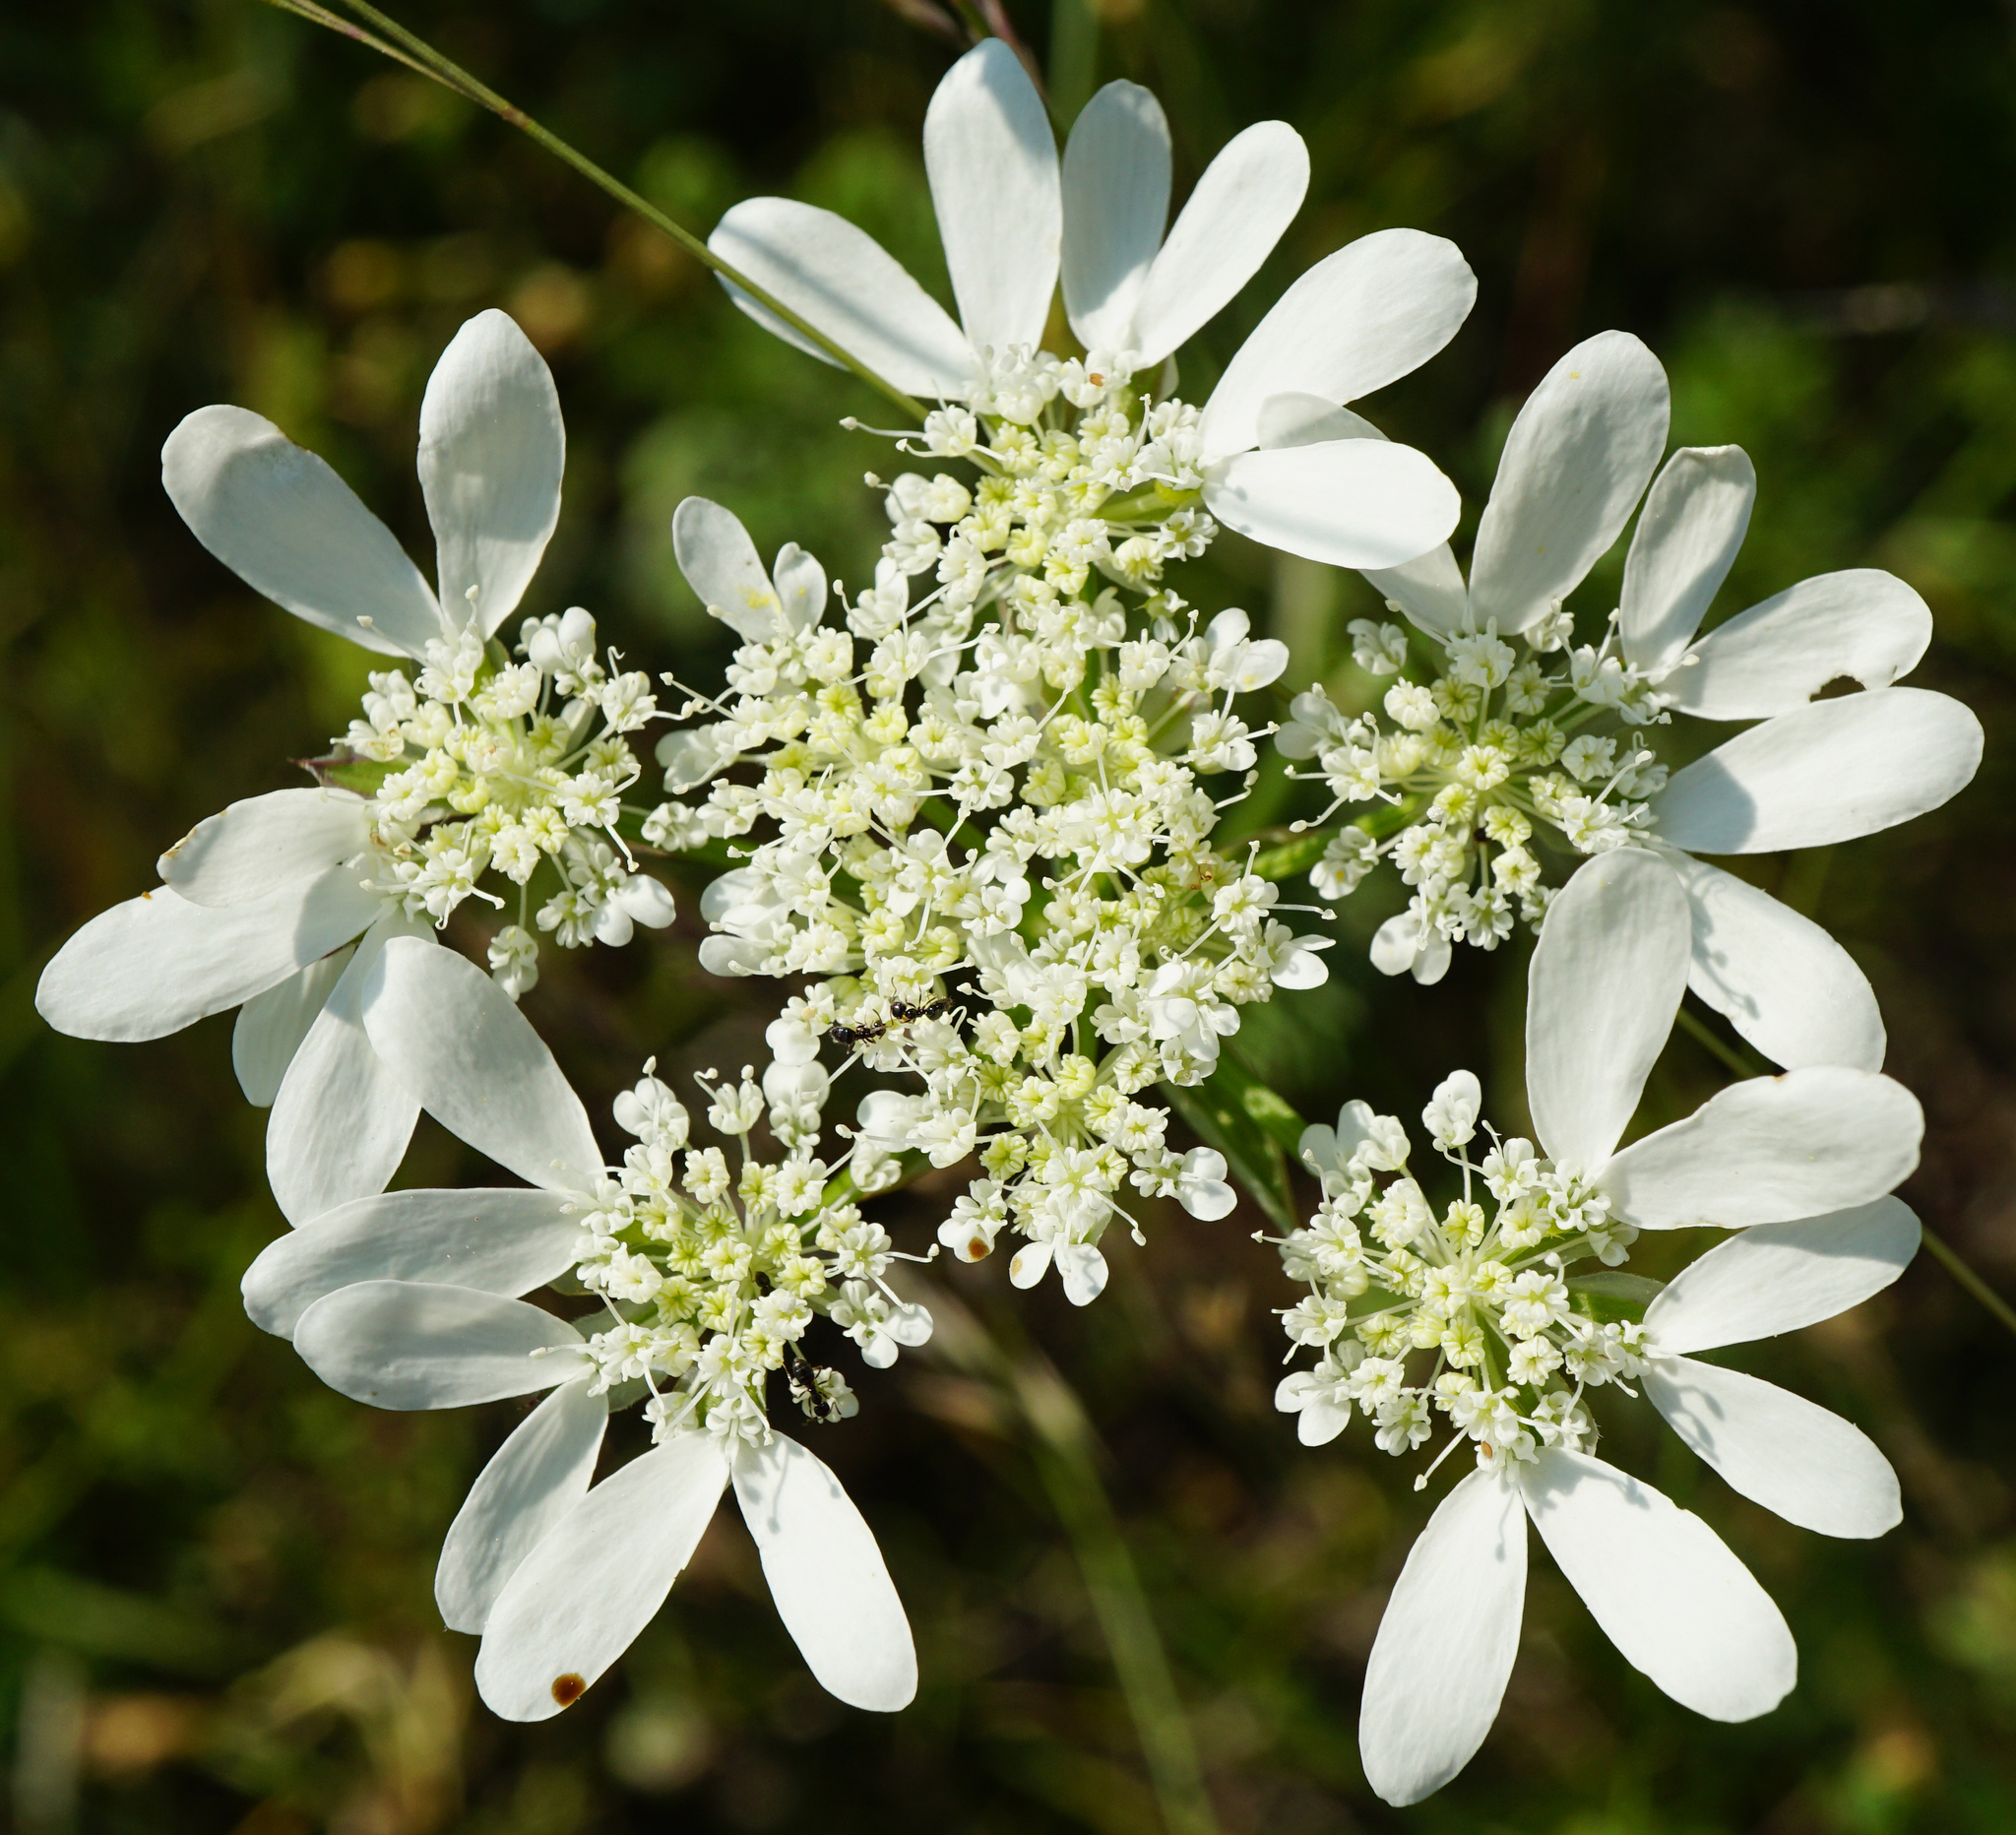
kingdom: Plantae
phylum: Tracheophyta
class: Magnoliopsida
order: Apiales
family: Apiaceae
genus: Orlaya
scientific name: Orlaya grandiflora
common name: White lace flower
